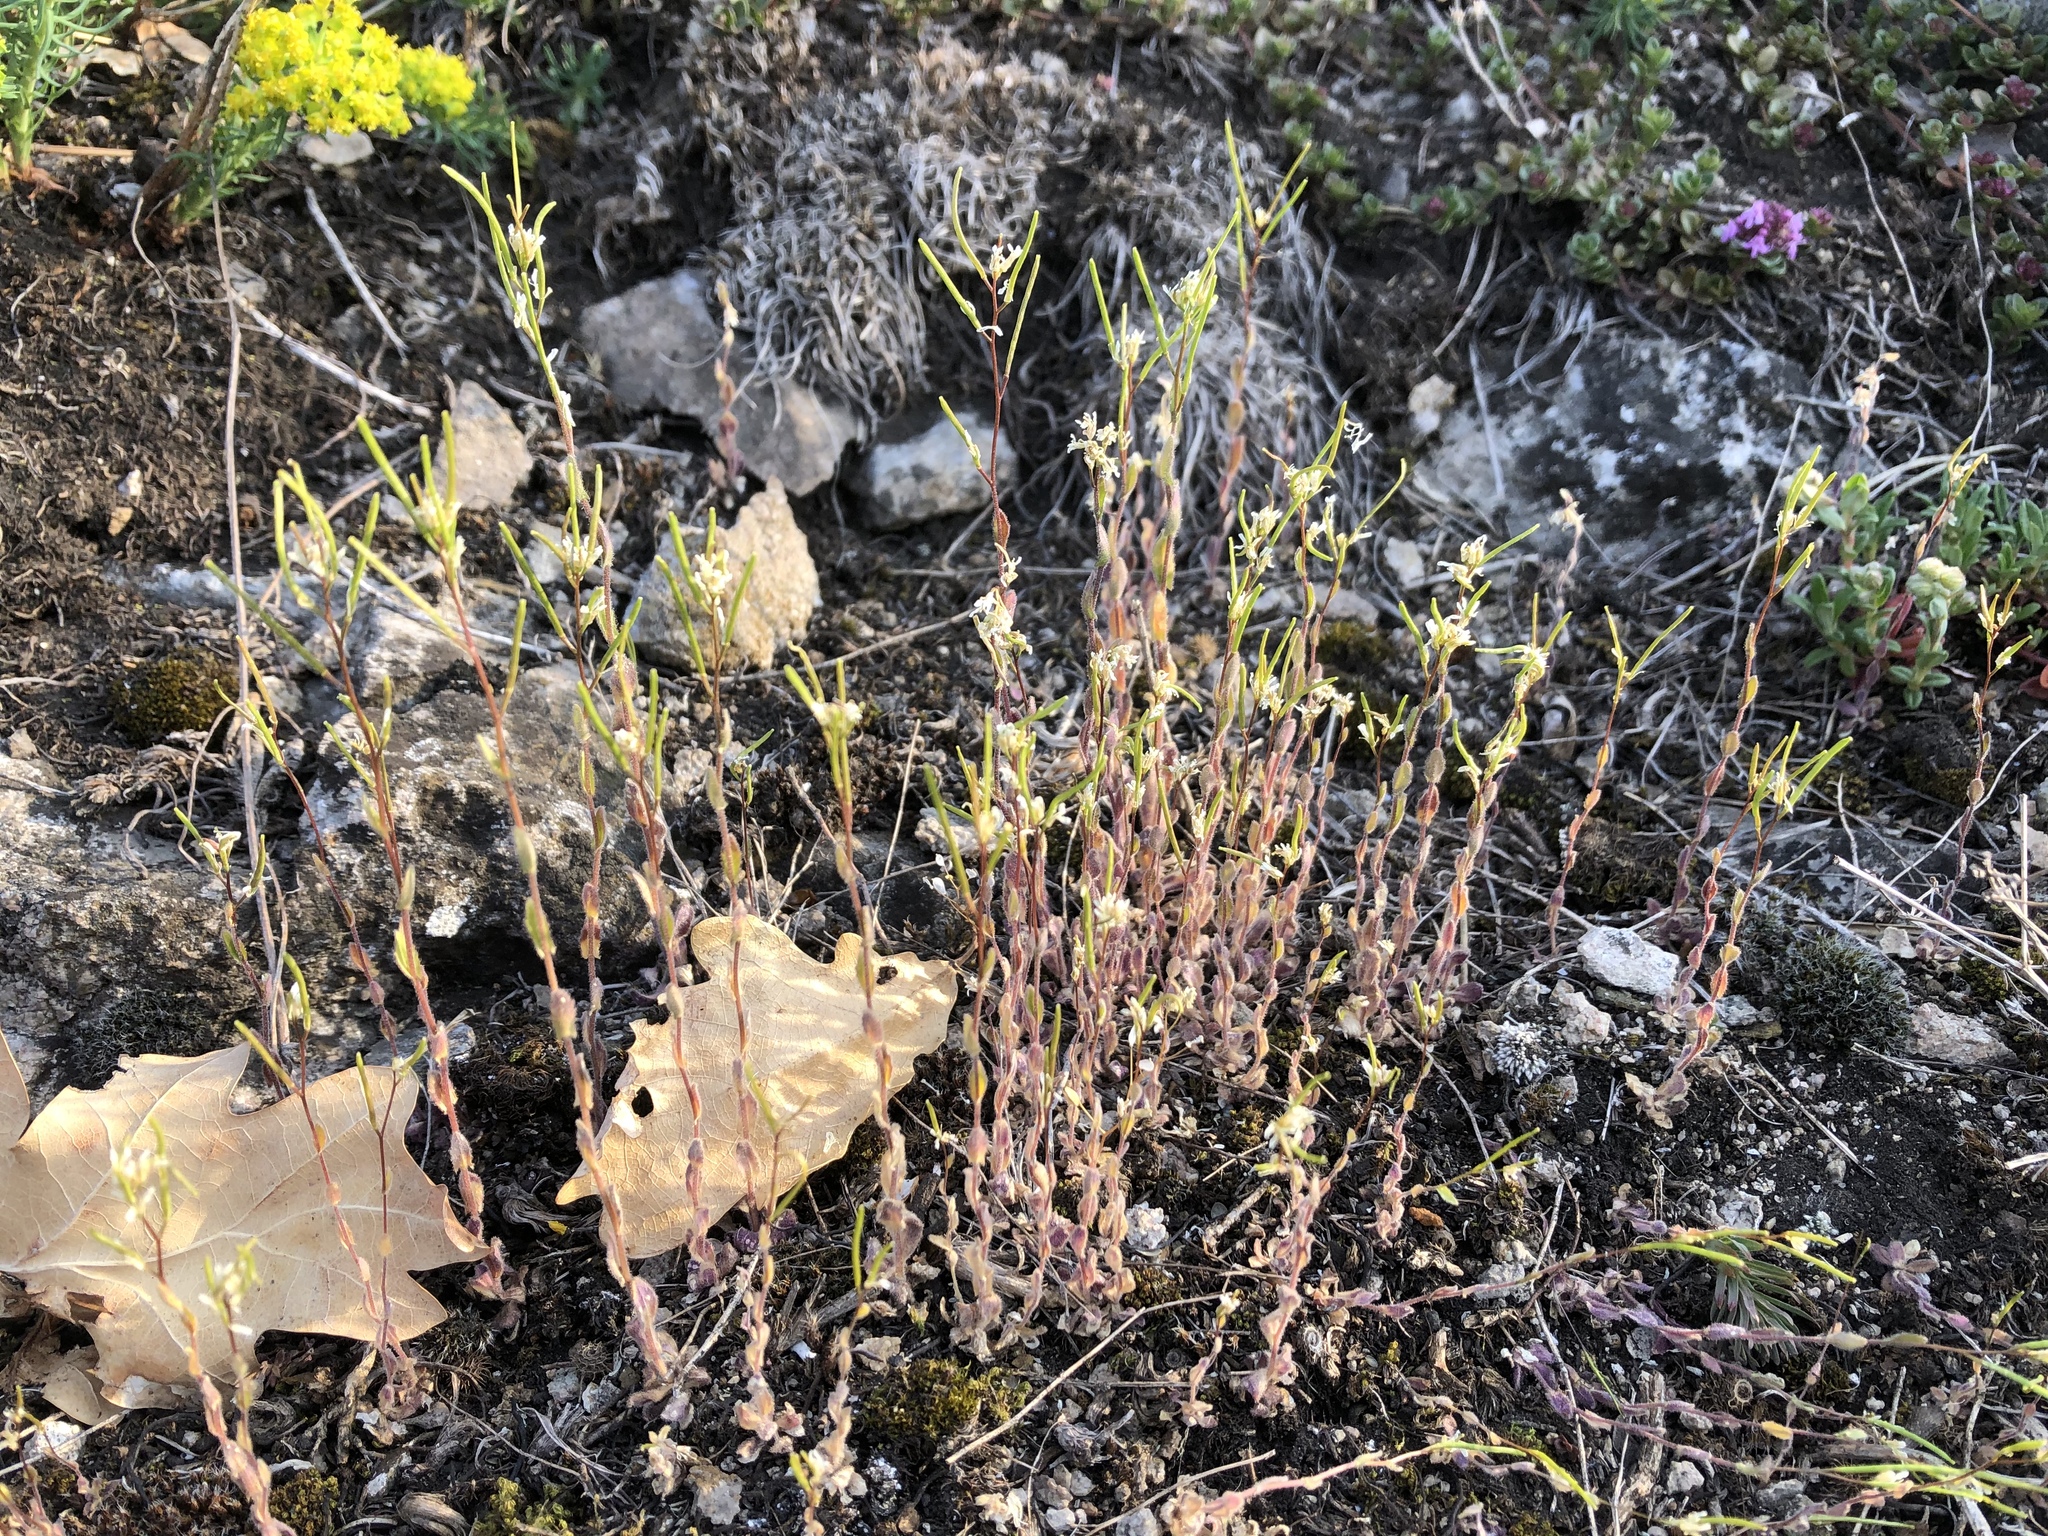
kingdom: Plantae
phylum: Tracheophyta
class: Magnoliopsida
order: Brassicales
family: Brassicaceae
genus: Arabis
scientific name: Arabis hirsuta
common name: Hairy rock-cress
